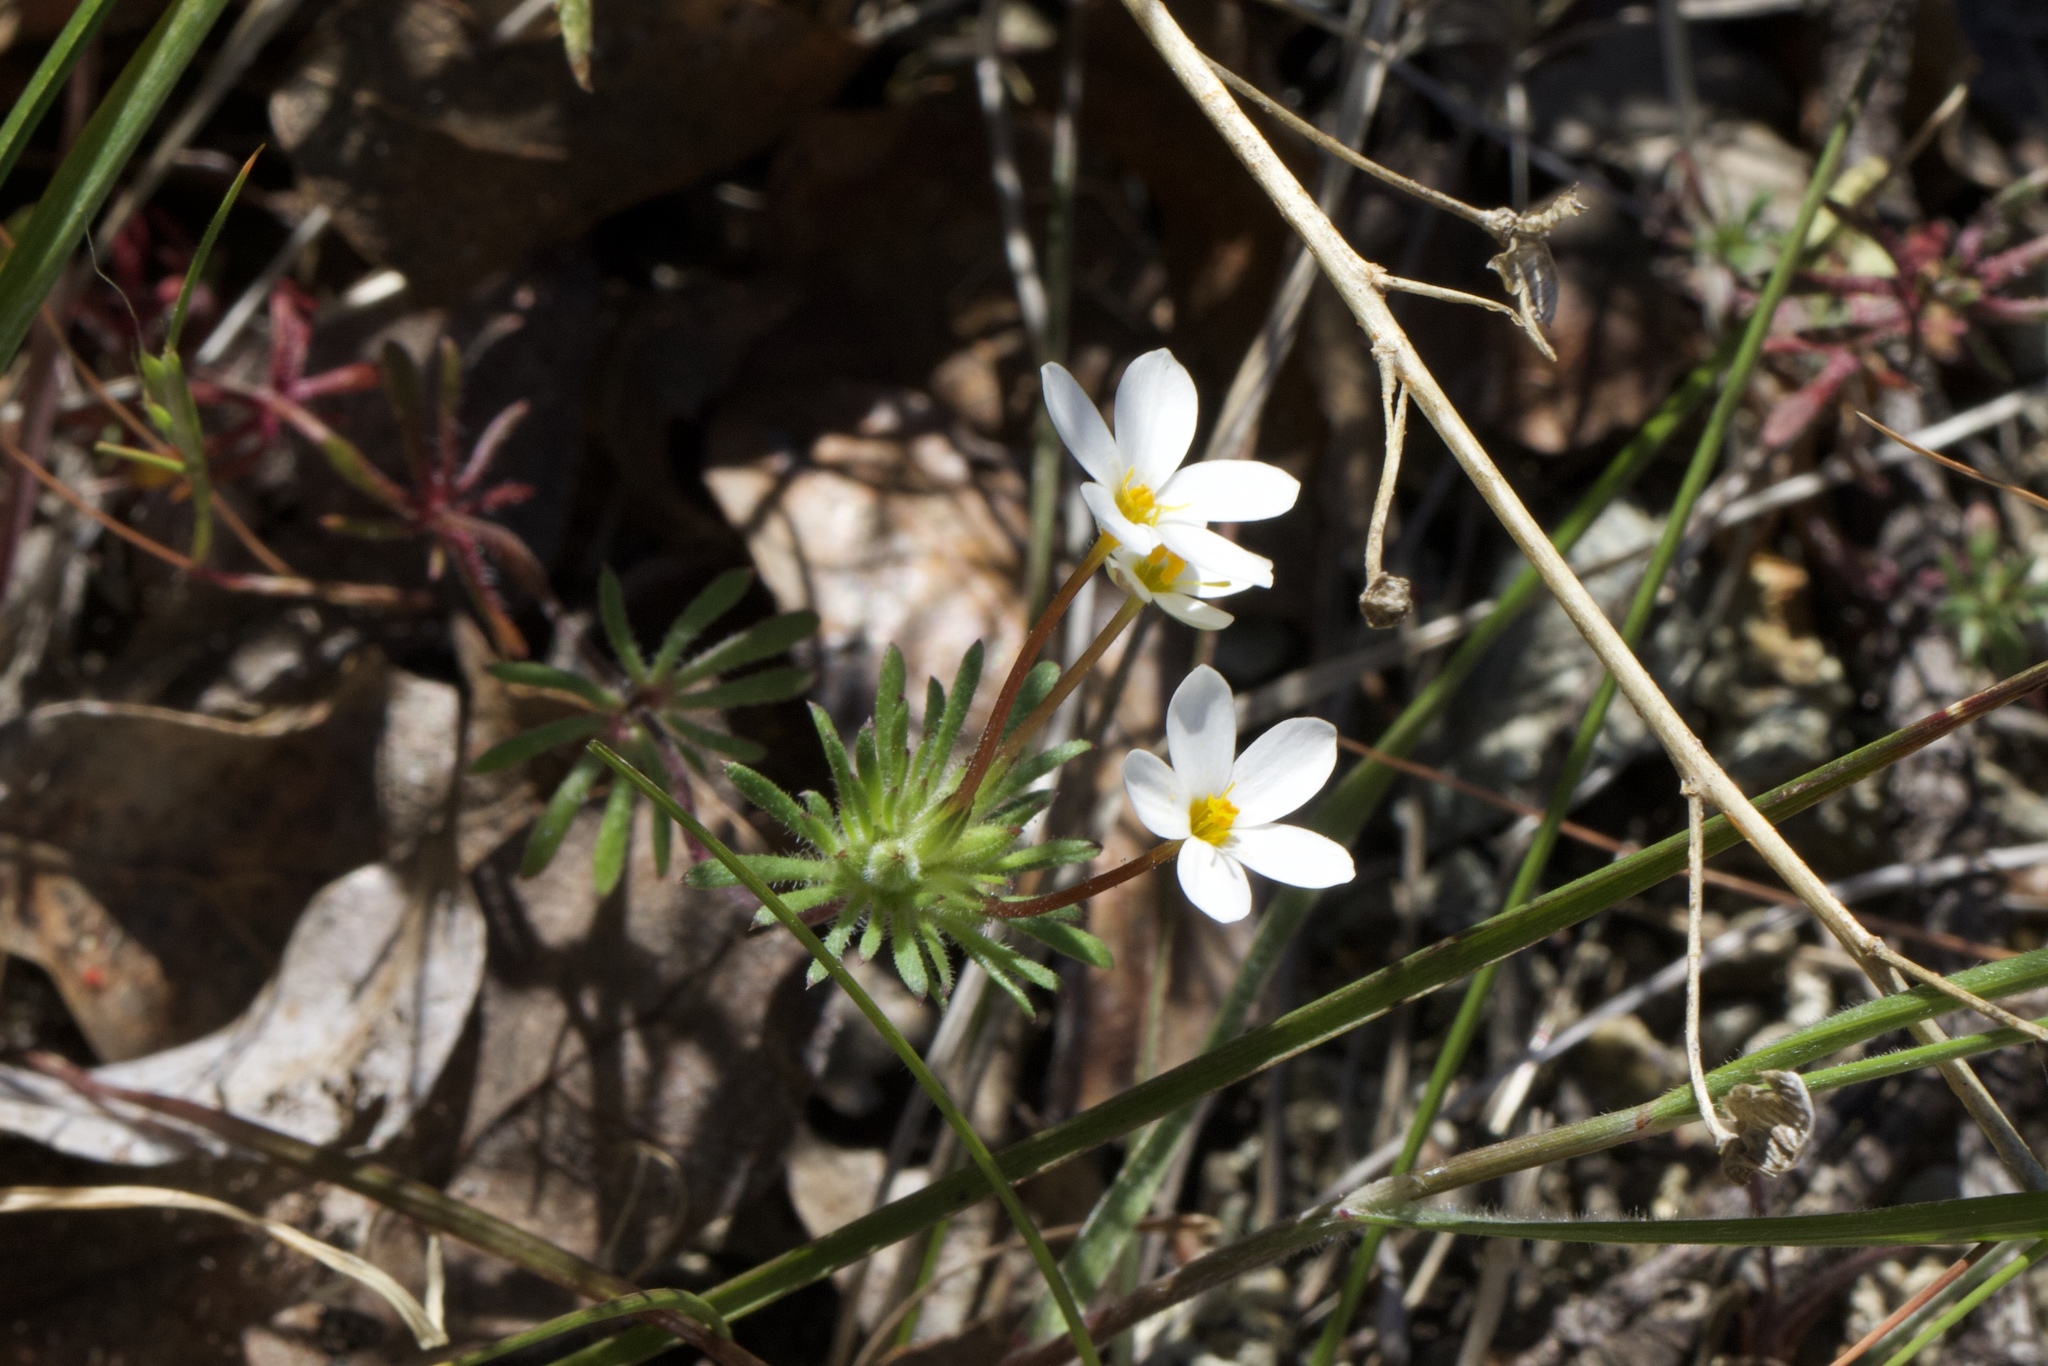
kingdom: Plantae
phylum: Tracheophyta
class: Magnoliopsida
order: Ericales
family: Polemoniaceae
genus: Leptosiphon
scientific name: Leptosiphon parviflorus
